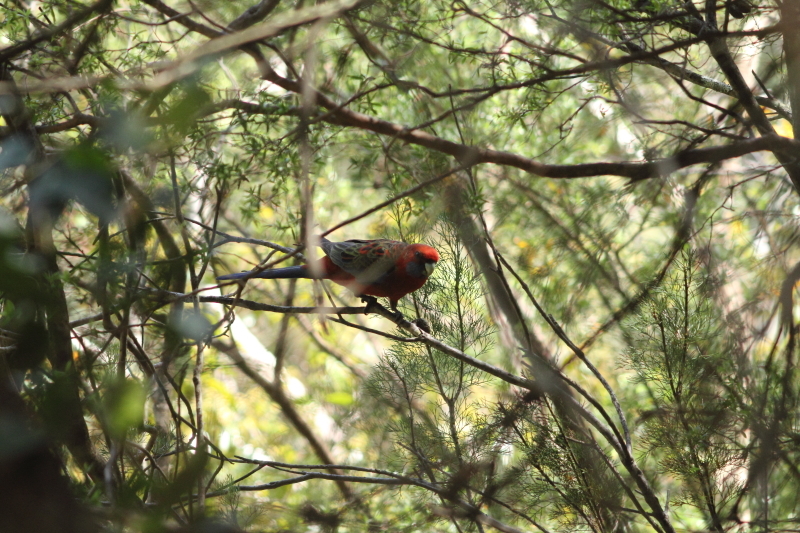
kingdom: Animalia
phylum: Chordata
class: Aves
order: Psittaciformes
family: Psittacidae
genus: Platycercus
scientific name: Platycercus elegans
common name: Crimson rosella
